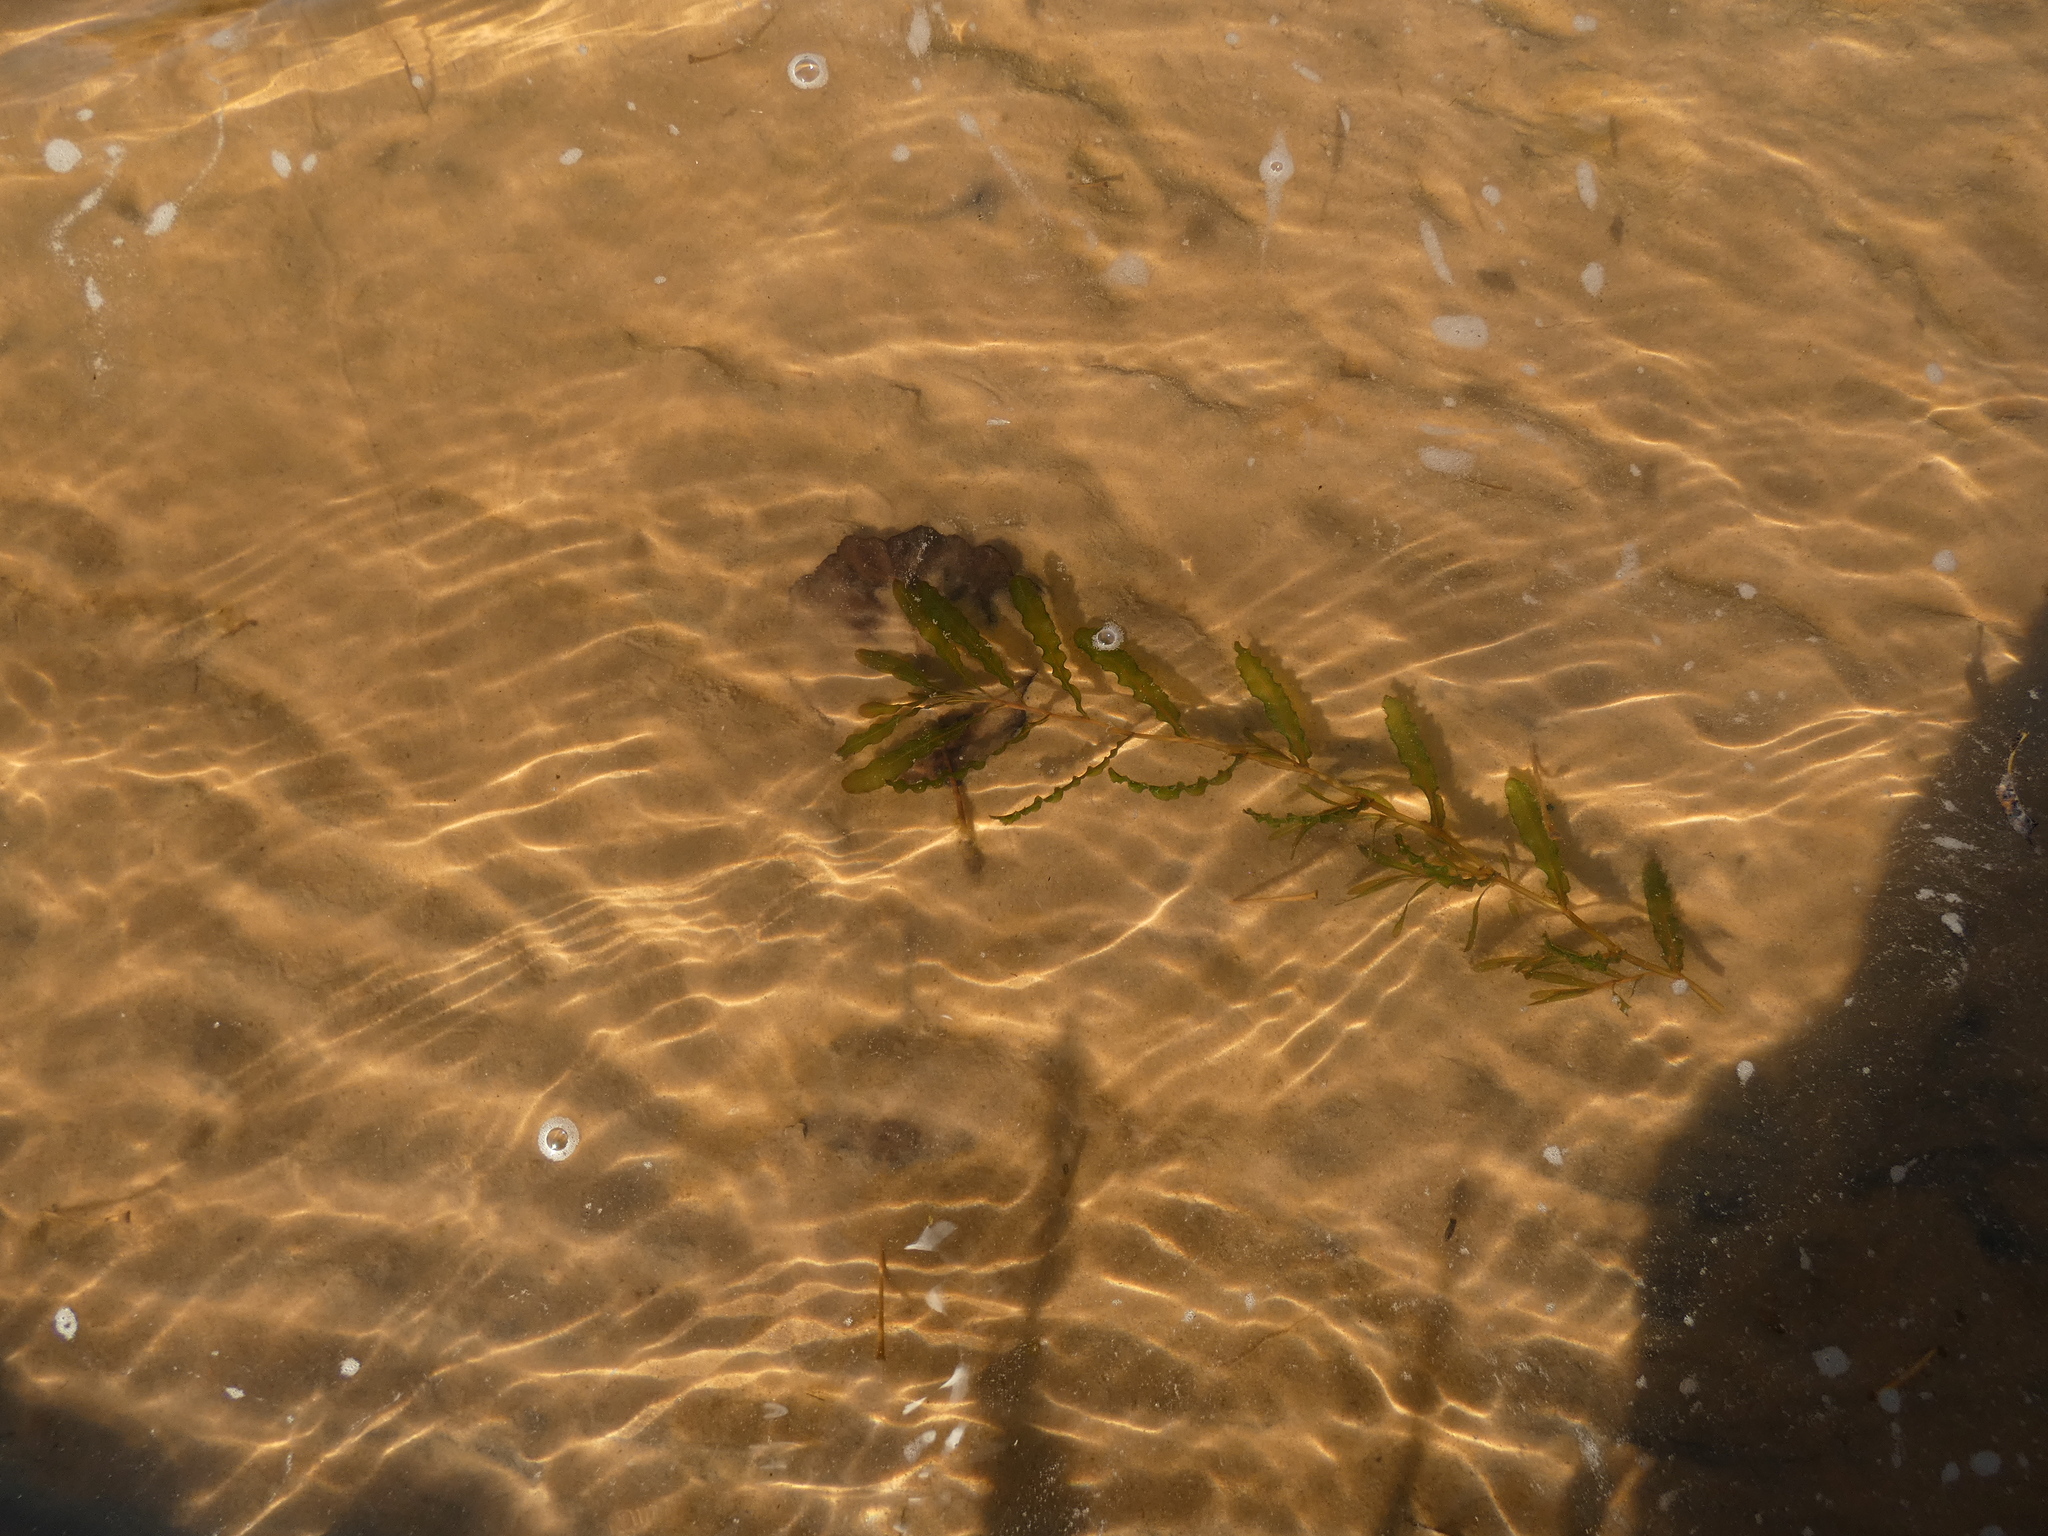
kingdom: Plantae
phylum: Tracheophyta
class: Liliopsida
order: Alismatales
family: Potamogetonaceae
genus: Potamogeton
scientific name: Potamogeton crispus
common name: Curled pondweed
